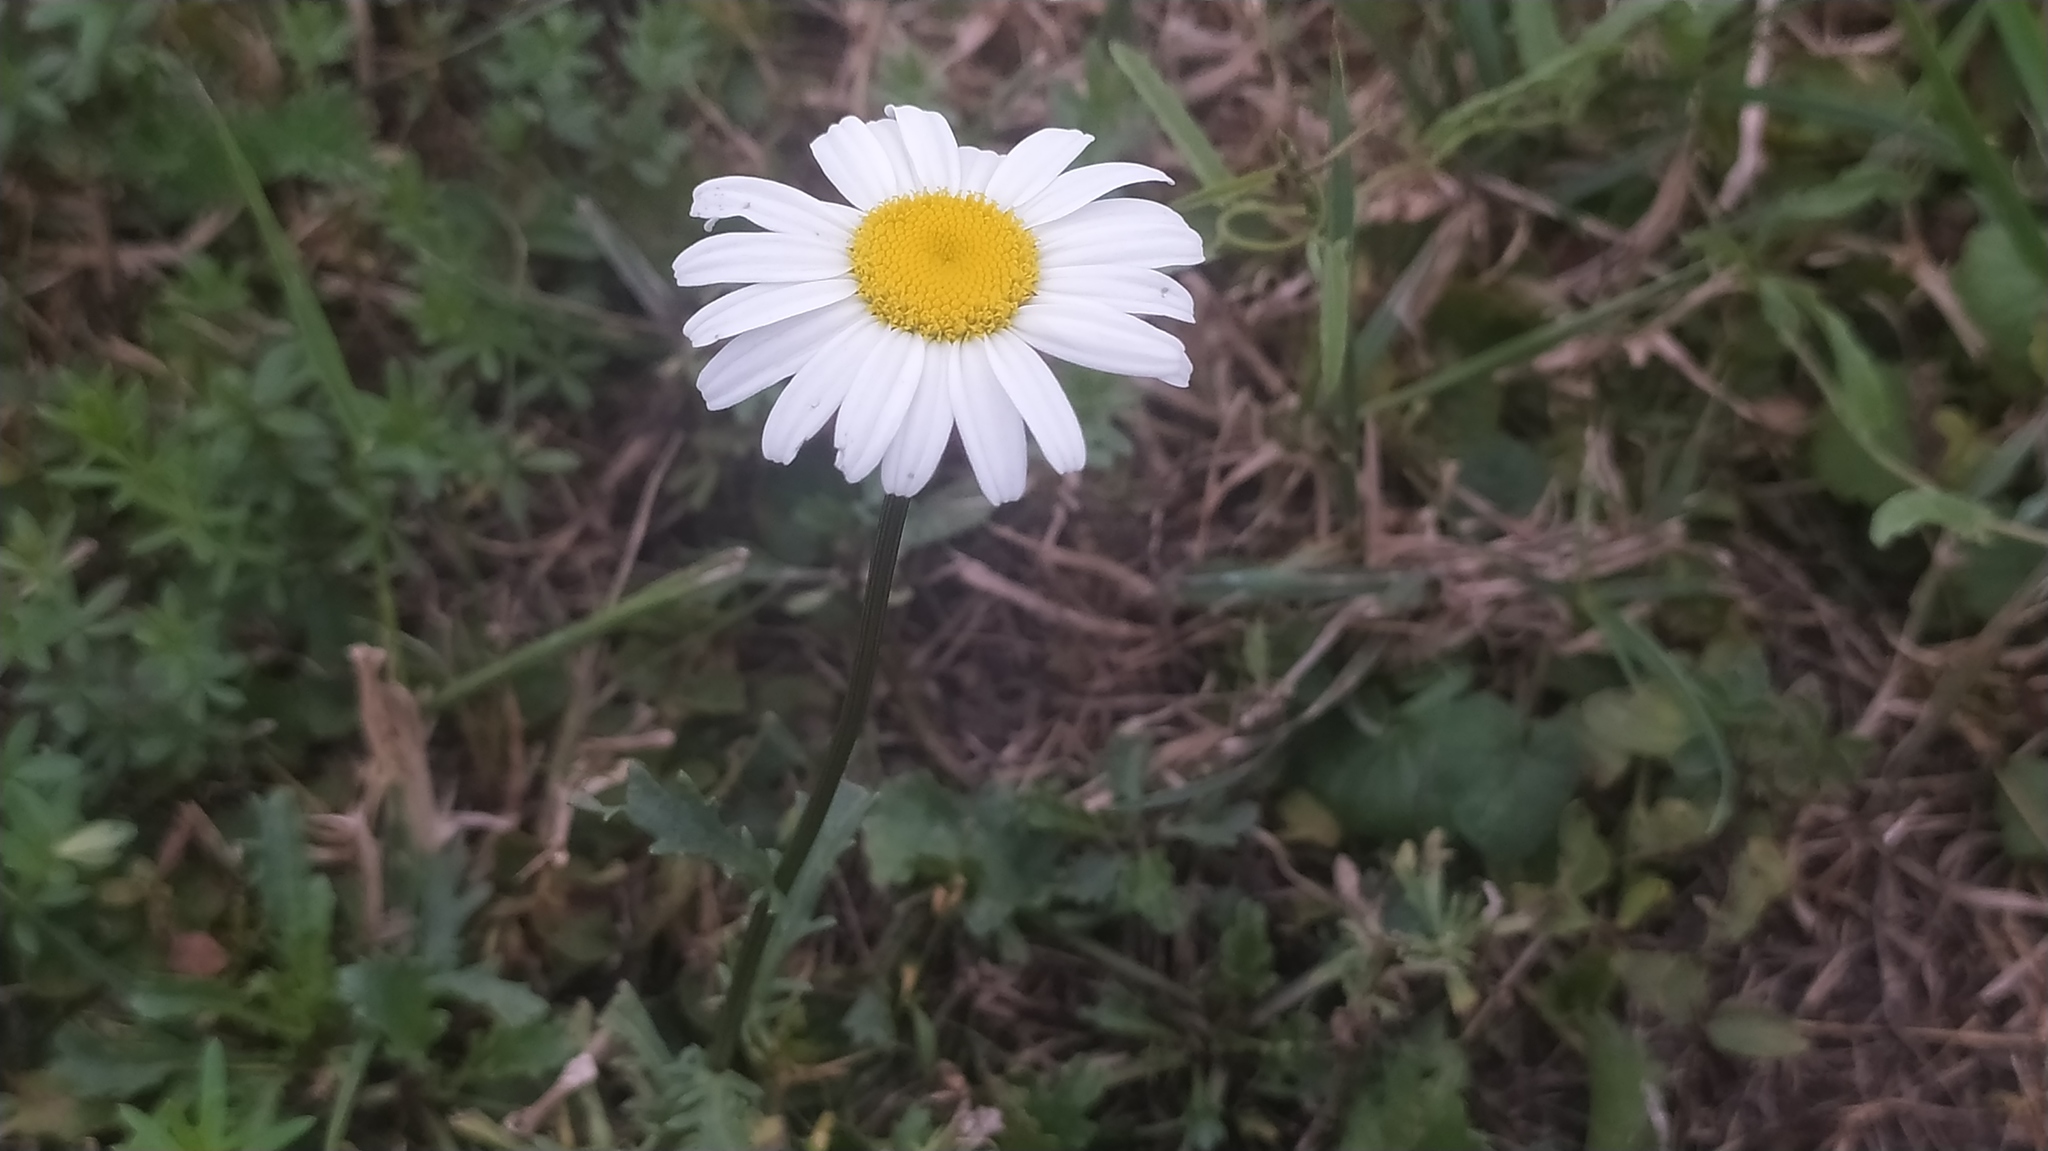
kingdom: Plantae
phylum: Tracheophyta
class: Magnoliopsida
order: Asterales
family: Asteraceae
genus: Leucanthemum
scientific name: Leucanthemum vulgare
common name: Oxeye daisy
